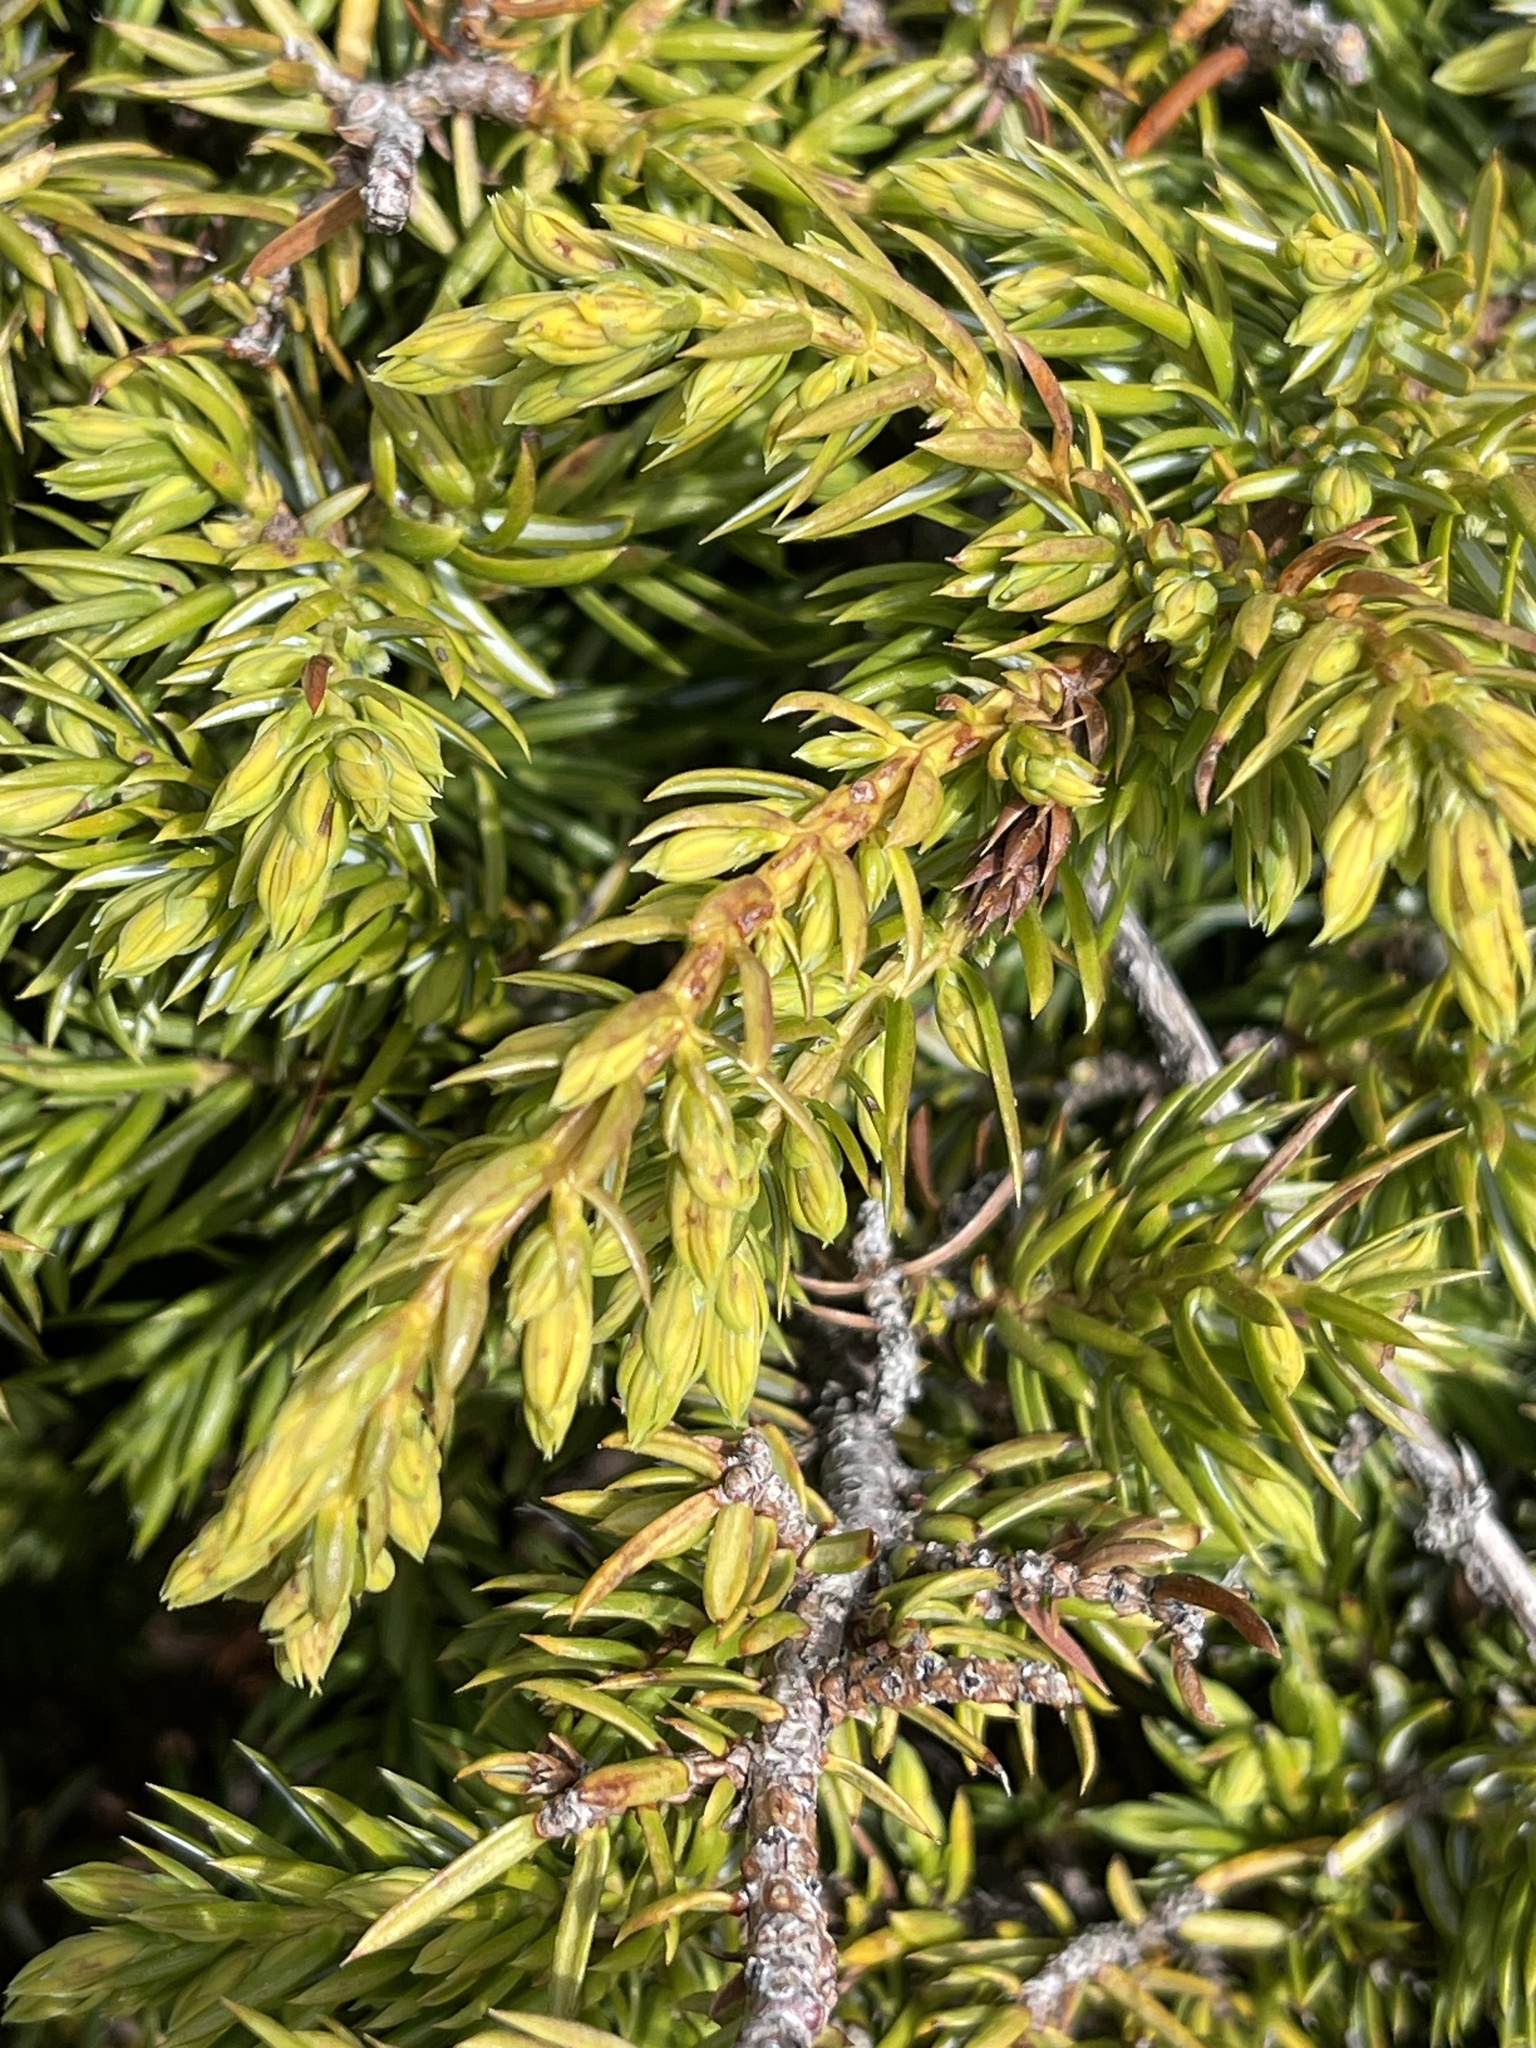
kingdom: Plantae
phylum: Tracheophyta
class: Pinopsida
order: Pinales
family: Cupressaceae
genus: Juniperus
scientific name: Juniperus communis
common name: Common juniper
